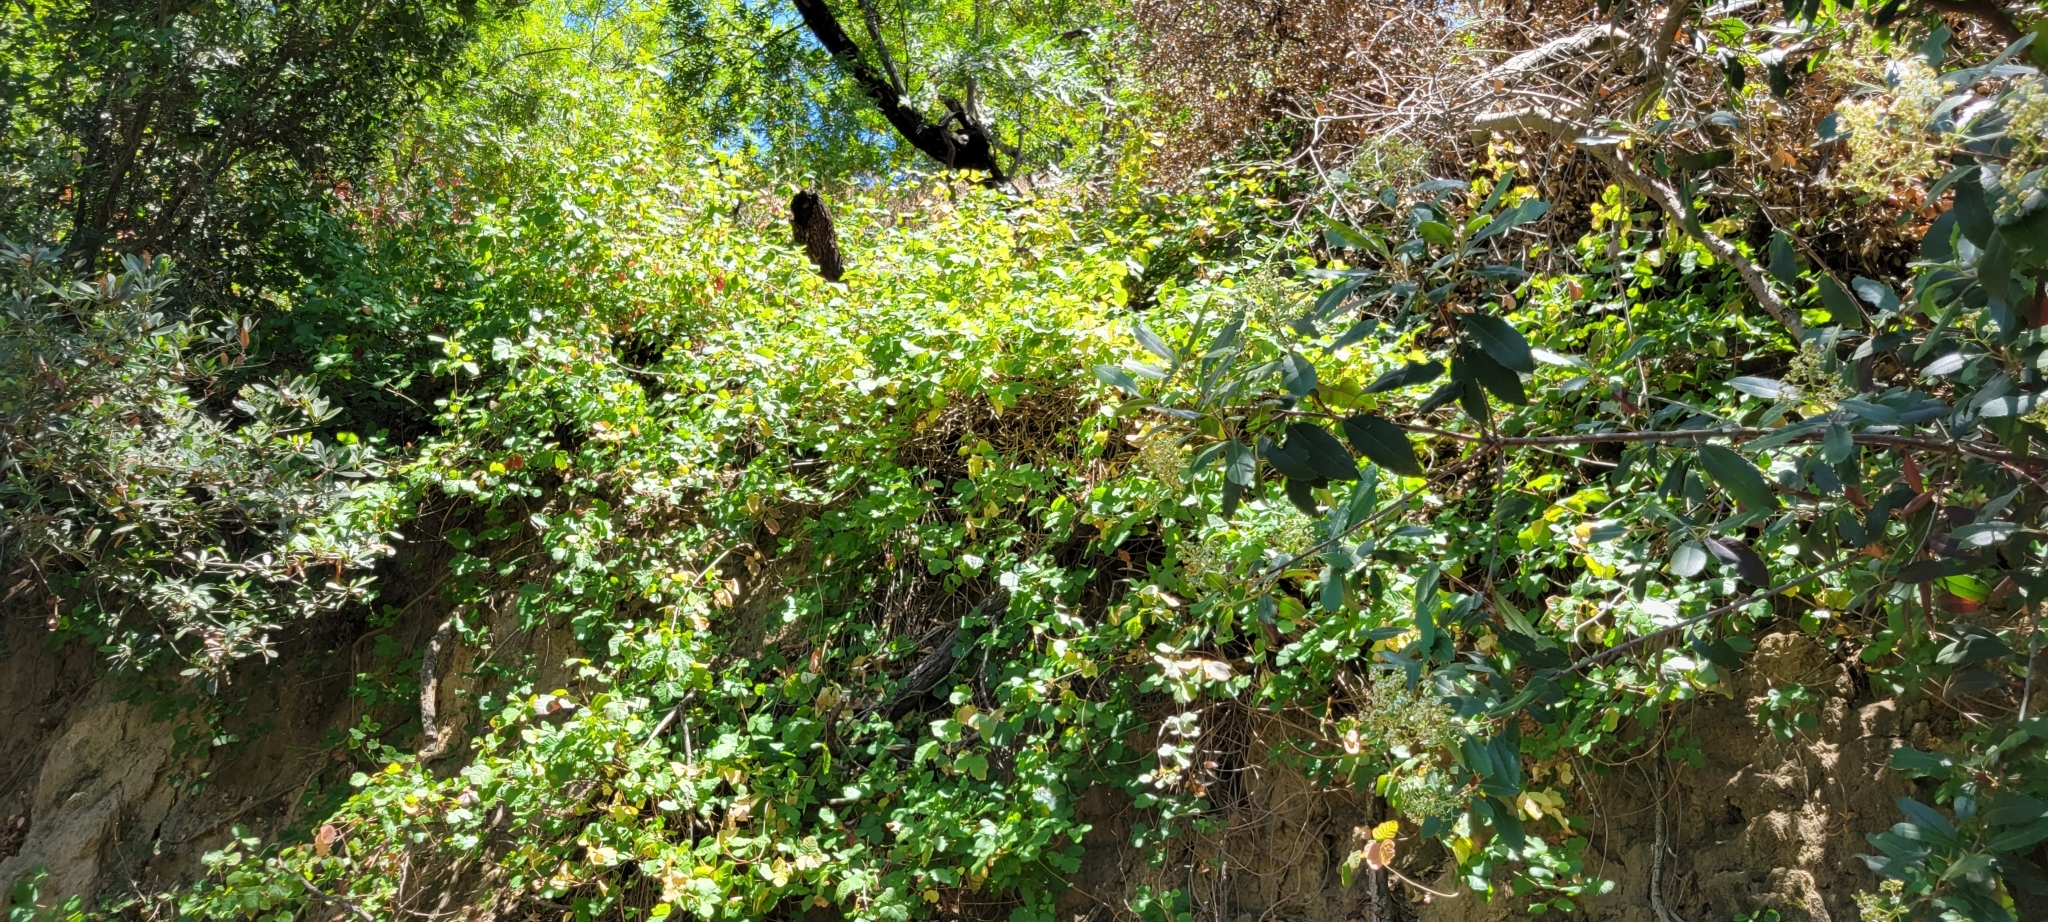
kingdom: Plantae
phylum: Tracheophyta
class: Magnoliopsida
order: Sapindales
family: Anacardiaceae
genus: Toxicodendron
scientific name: Toxicodendron diversilobum
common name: Pacific poison-oak
